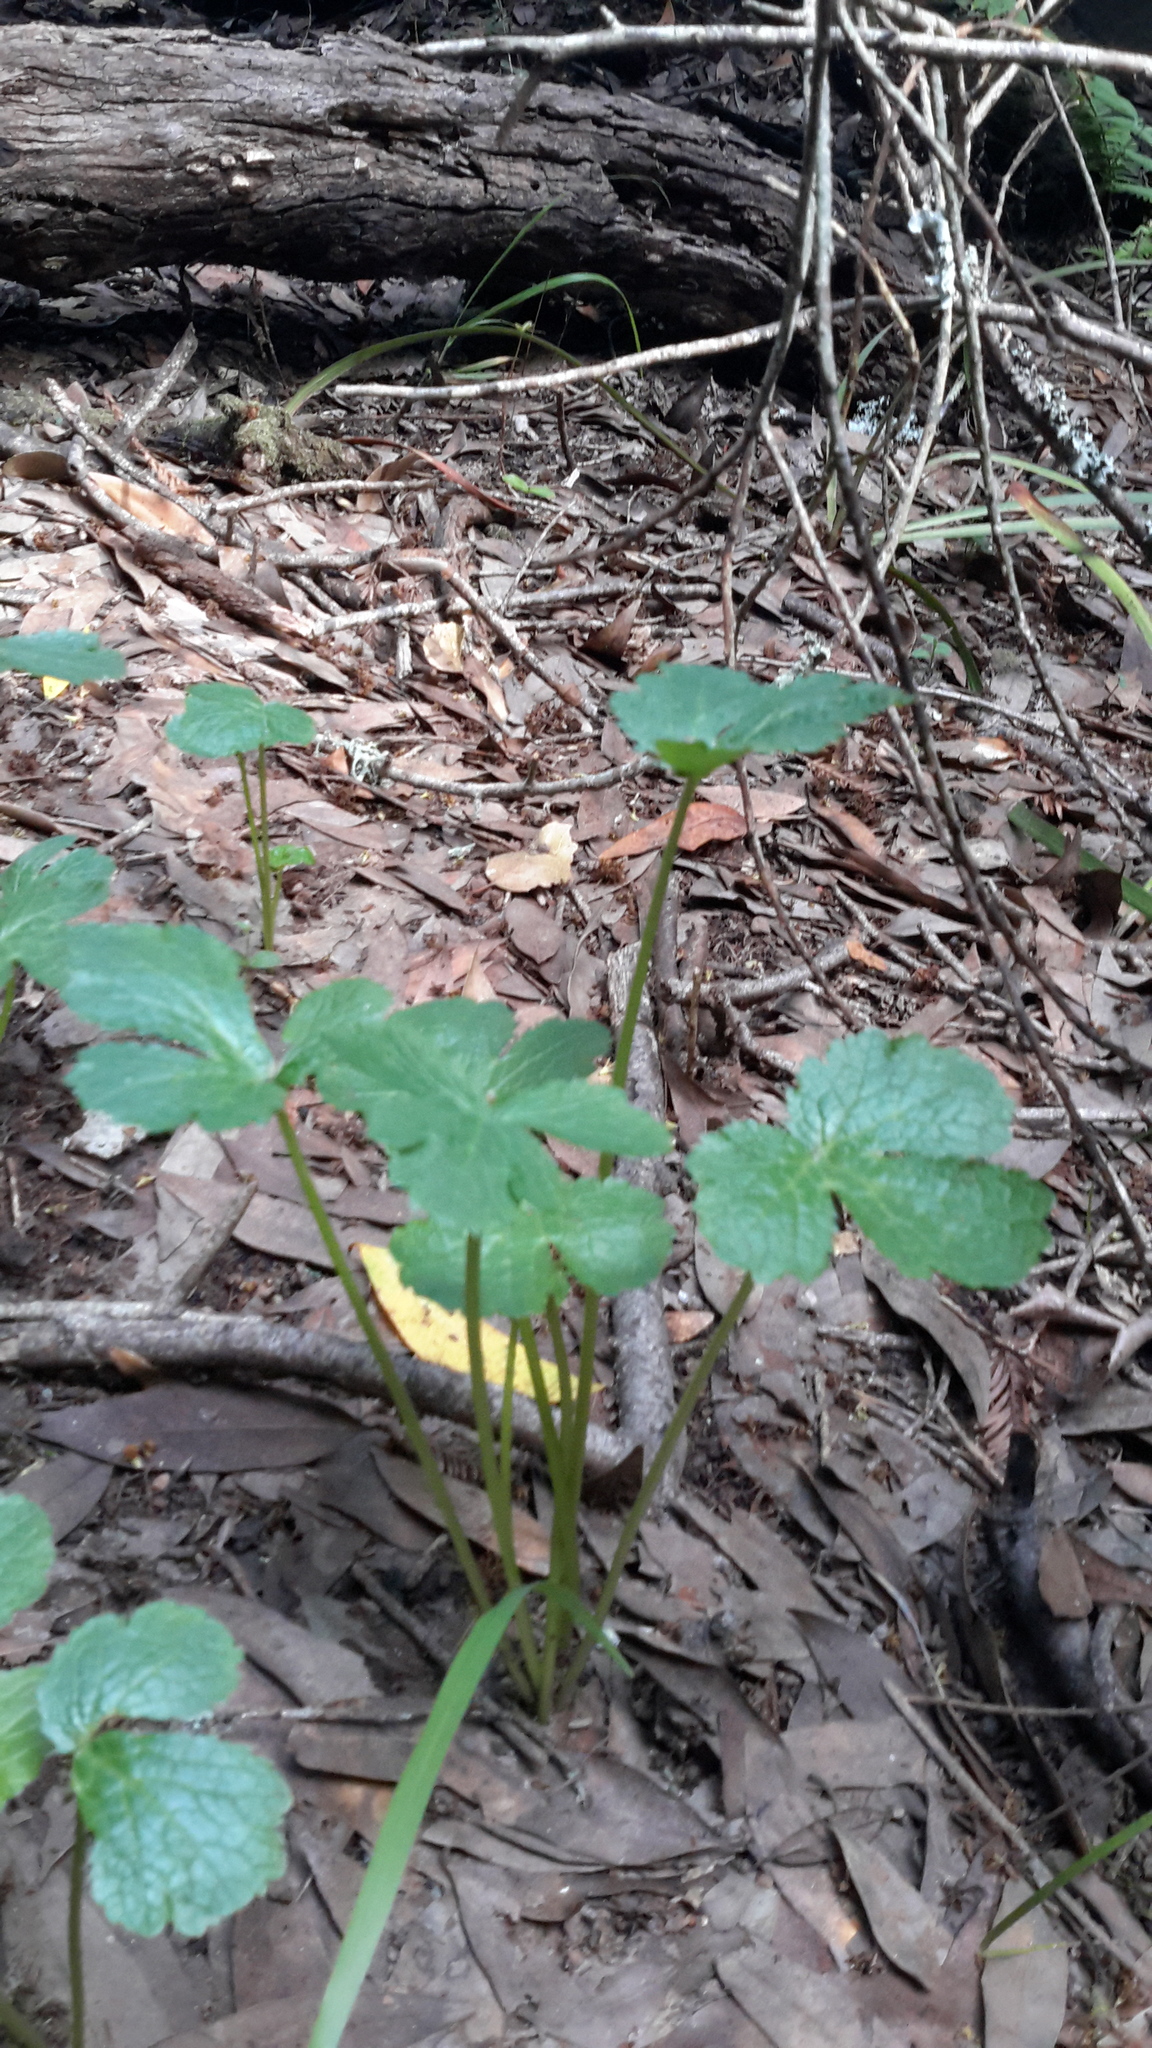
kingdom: Plantae
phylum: Tracheophyta
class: Magnoliopsida
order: Apiales
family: Apiaceae
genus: Sanicula
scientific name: Sanicula crassicaulis
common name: Western snakeroot
